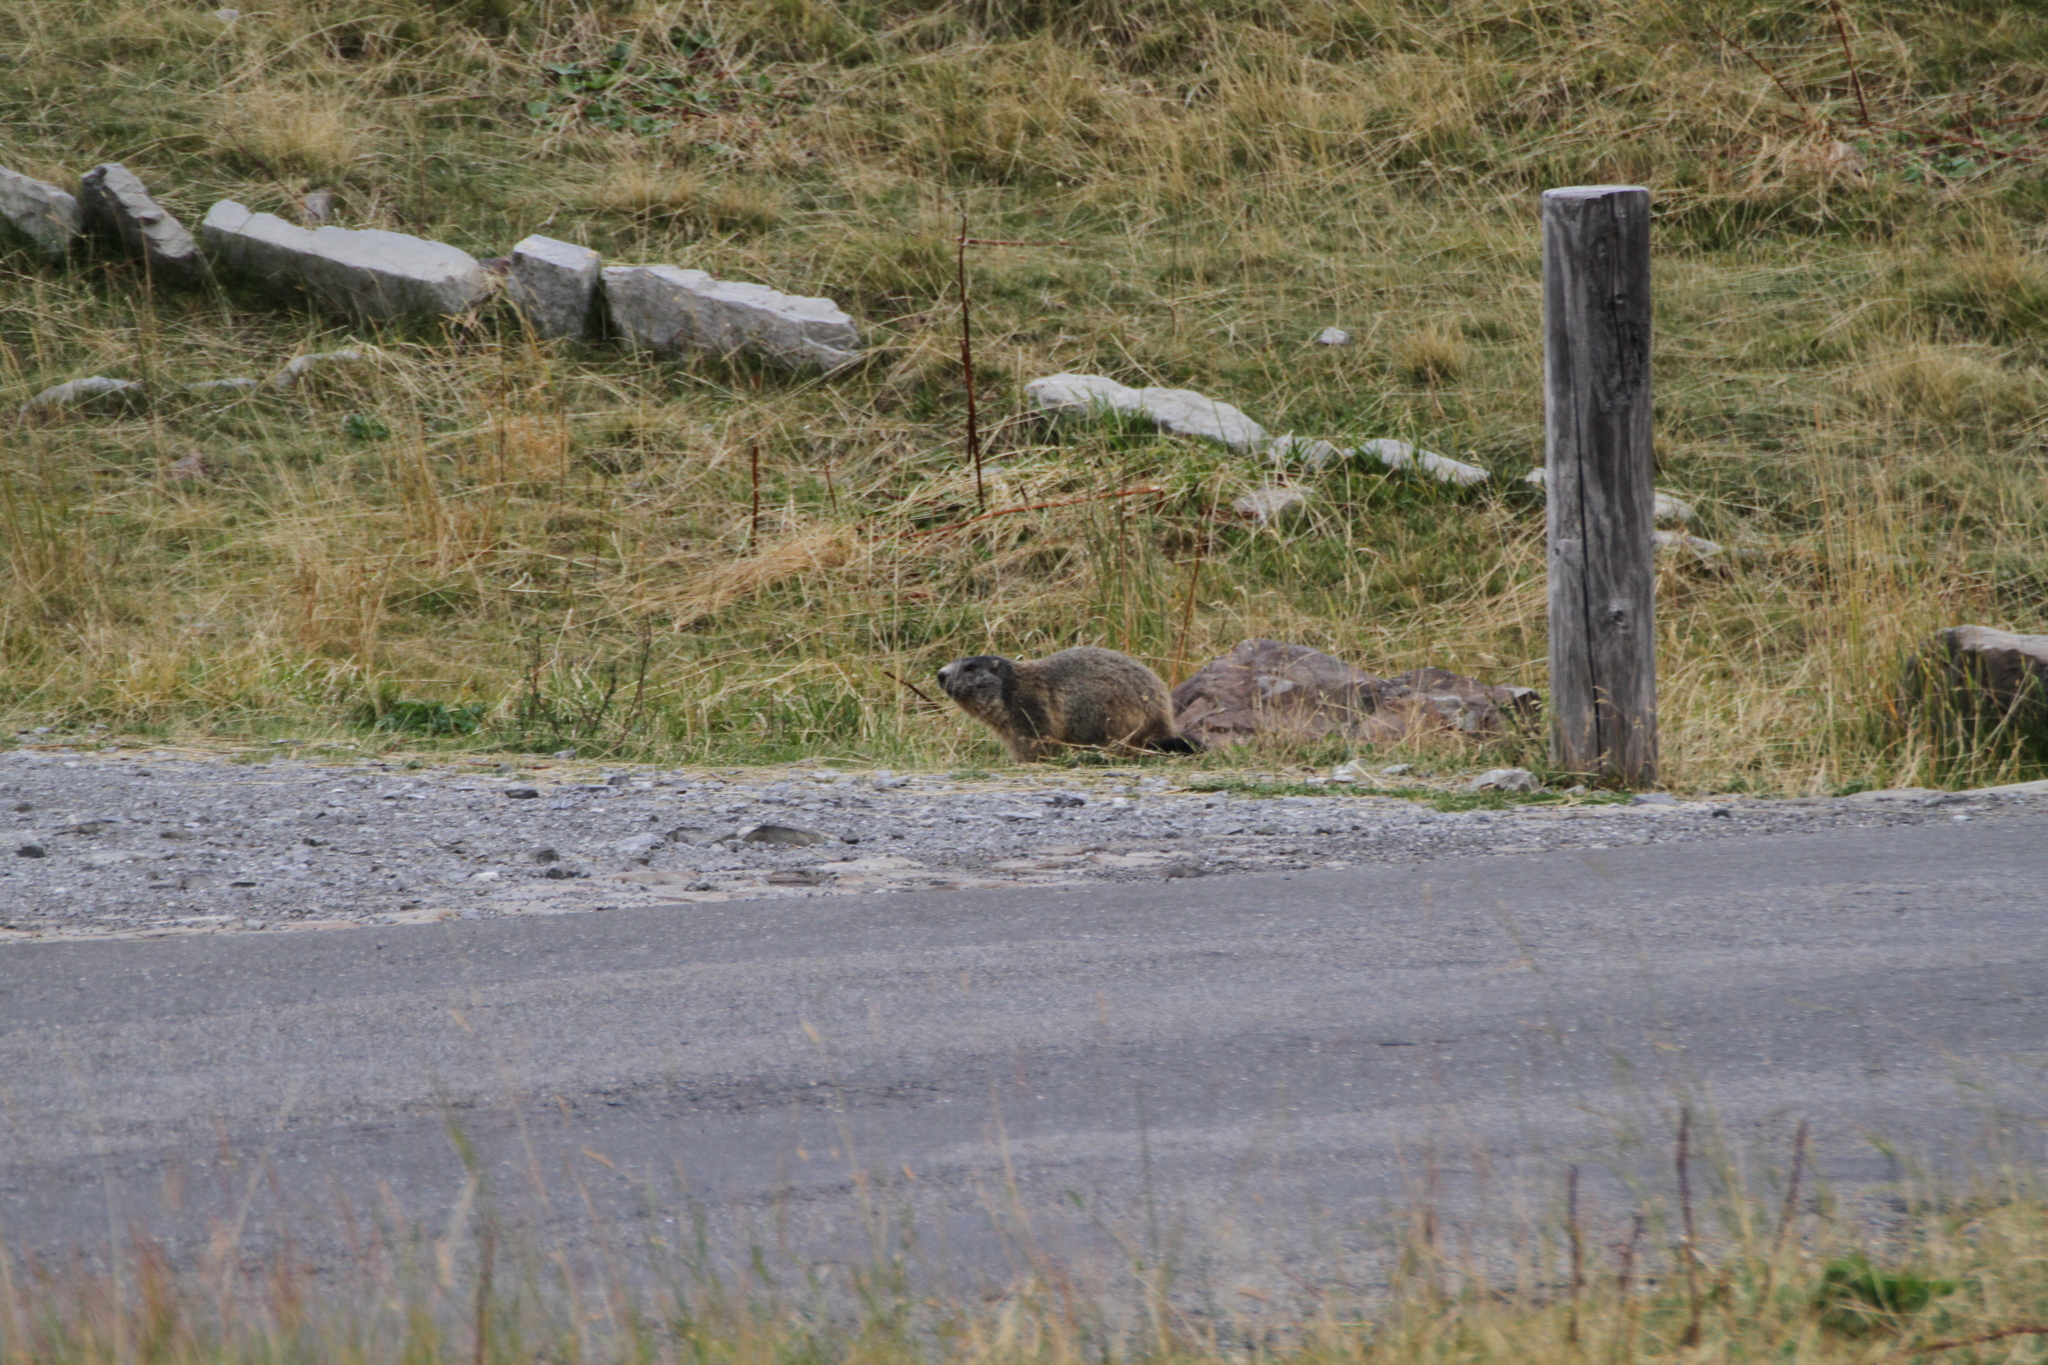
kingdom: Animalia
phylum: Chordata
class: Mammalia
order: Rodentia
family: Sciuridae
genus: Marmota
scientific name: Marmota marmota
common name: Alpine marmot
